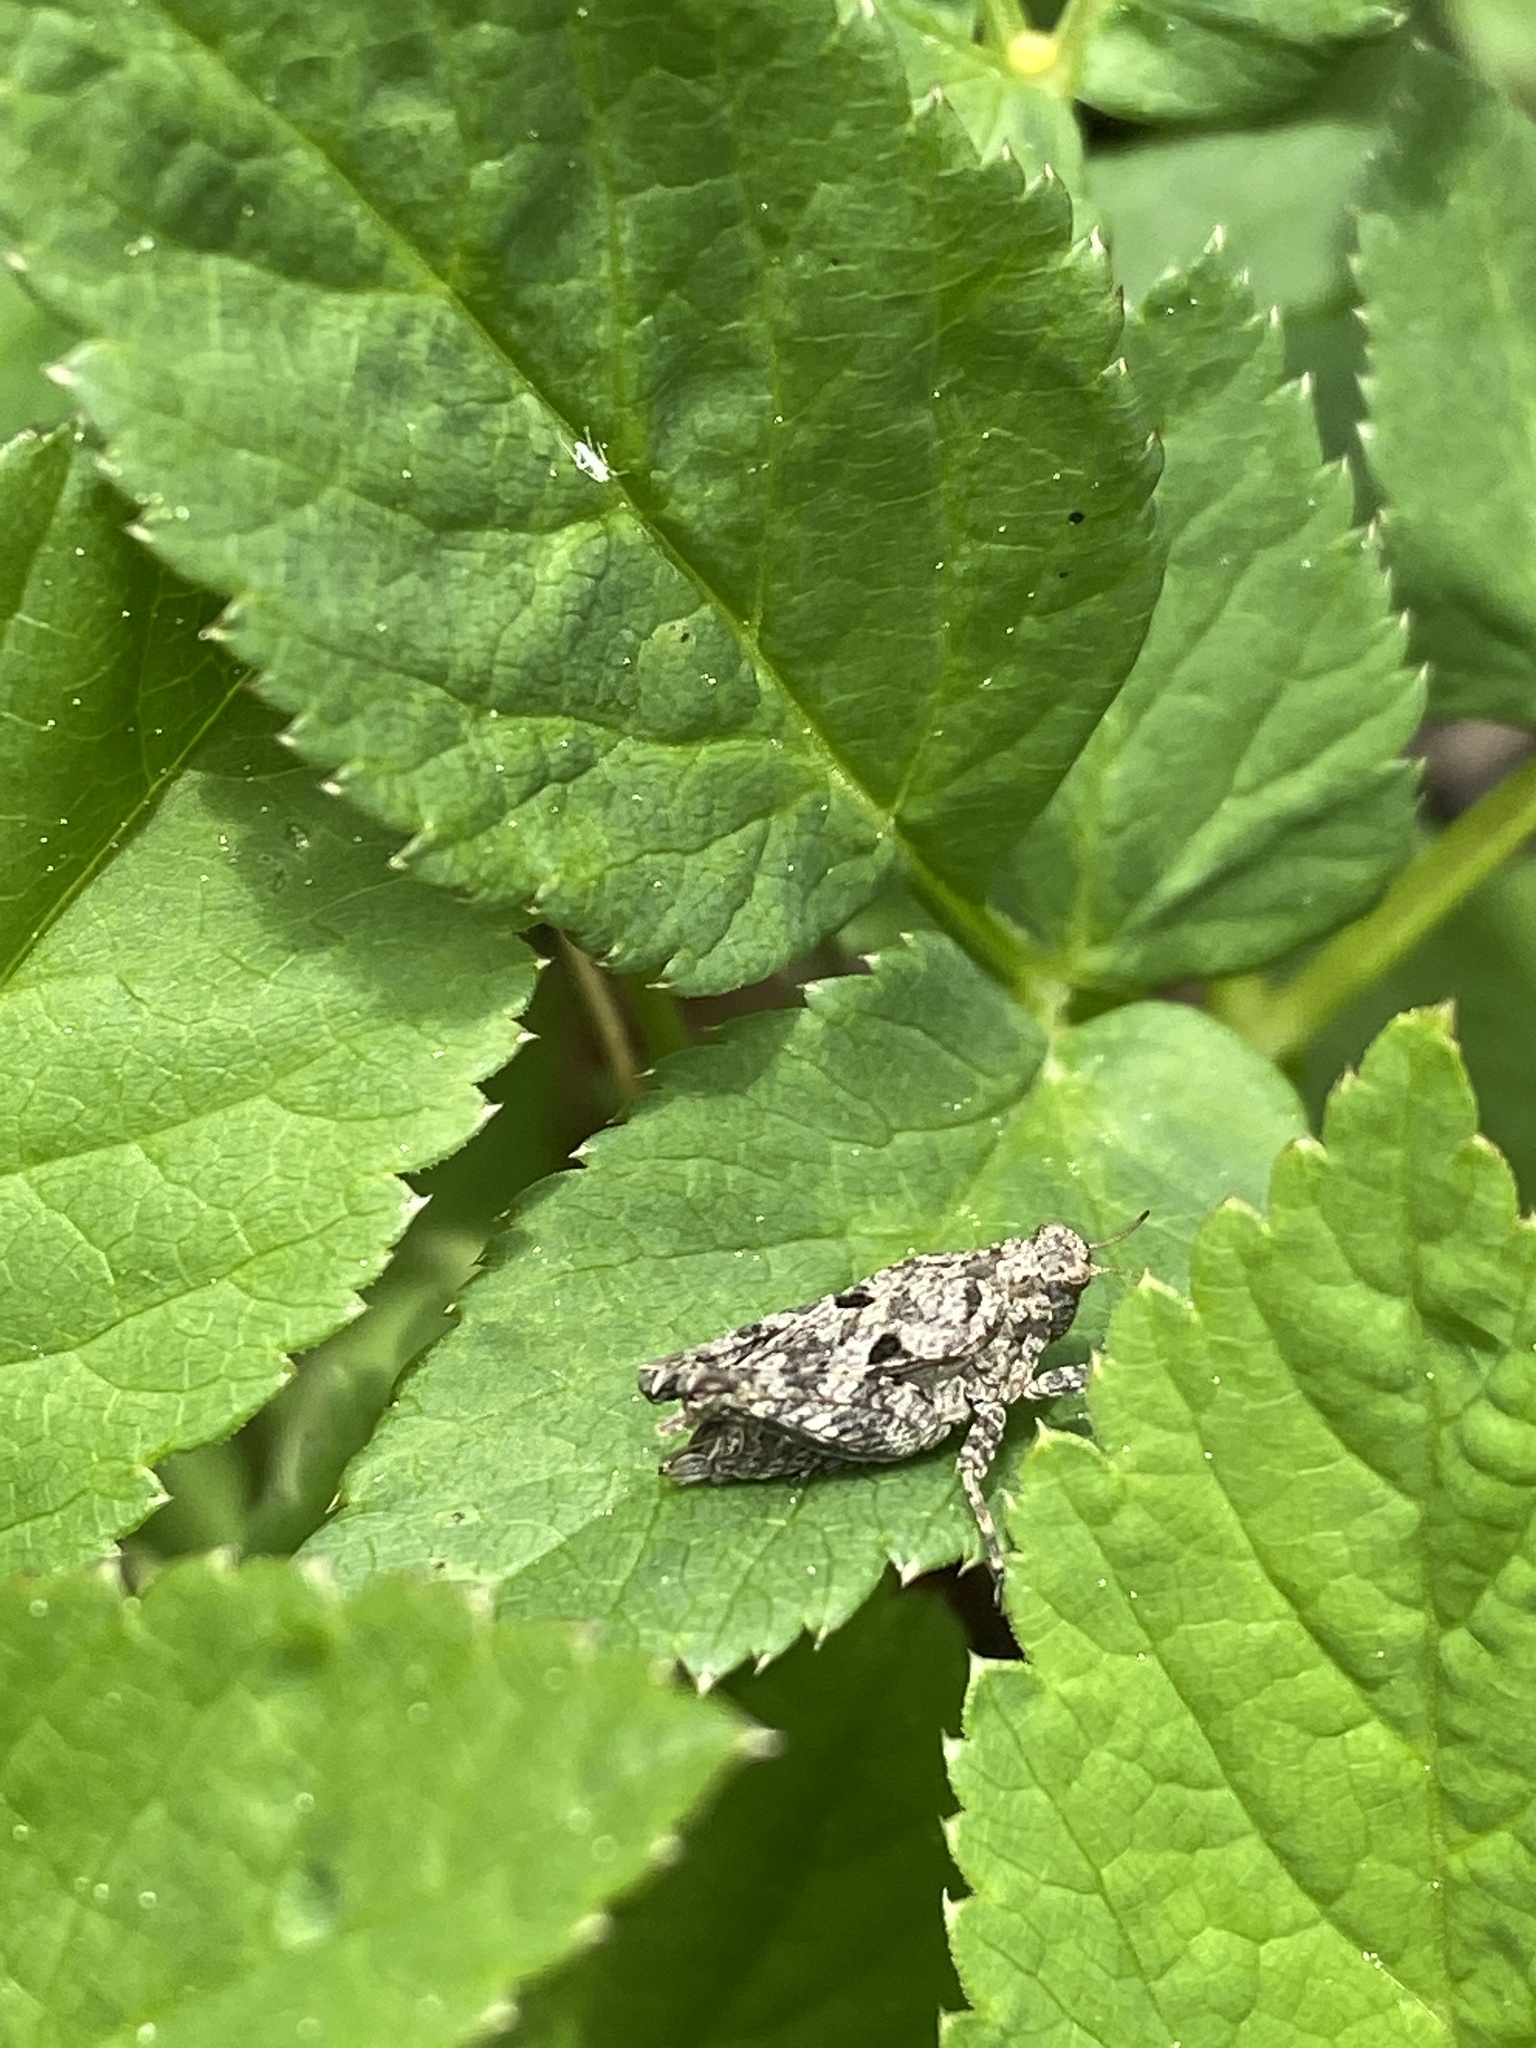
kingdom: Animalia
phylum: Arthropoda
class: Insecta
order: Orthoptera
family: Tetrigidae
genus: Tetrix
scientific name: Tetrix tenuicornis
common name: Long-horned groundhopper
